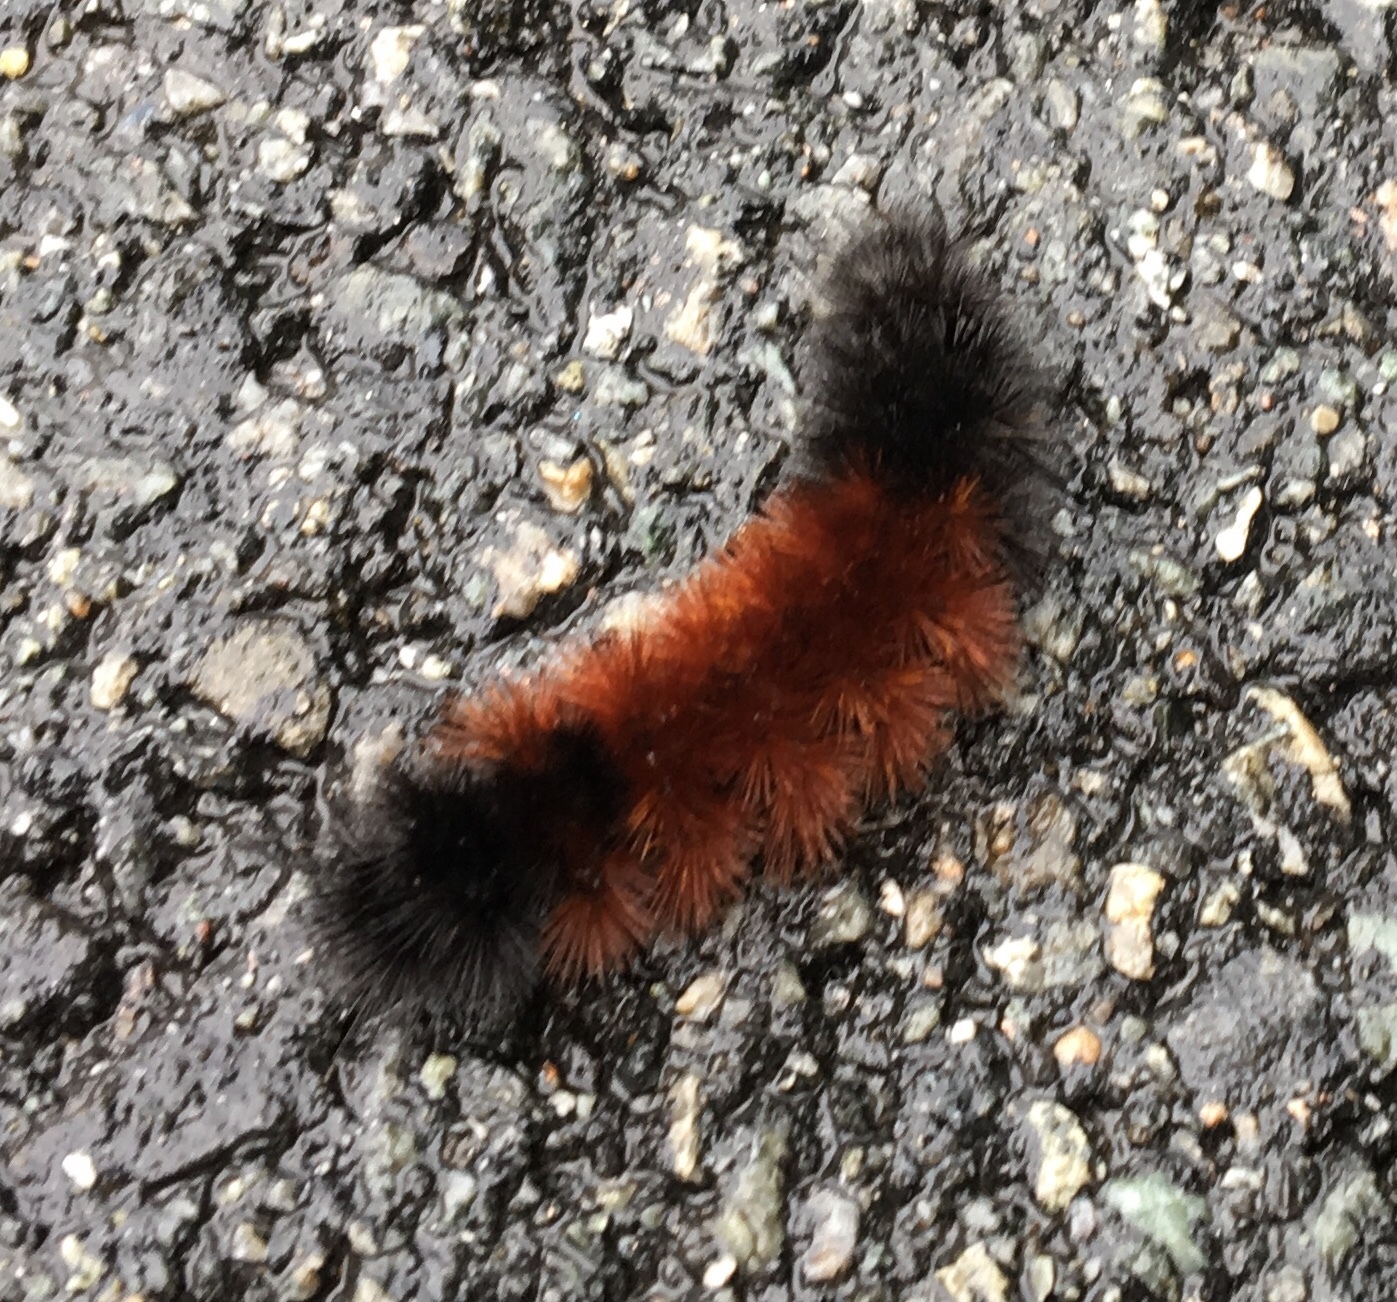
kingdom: Animalia
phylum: Arthropoda
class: Insecta
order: Lepidoptera
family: Erebidae
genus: Pyrrharctia
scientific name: Pyrrharctia isabella
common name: Isabella tiger moth
